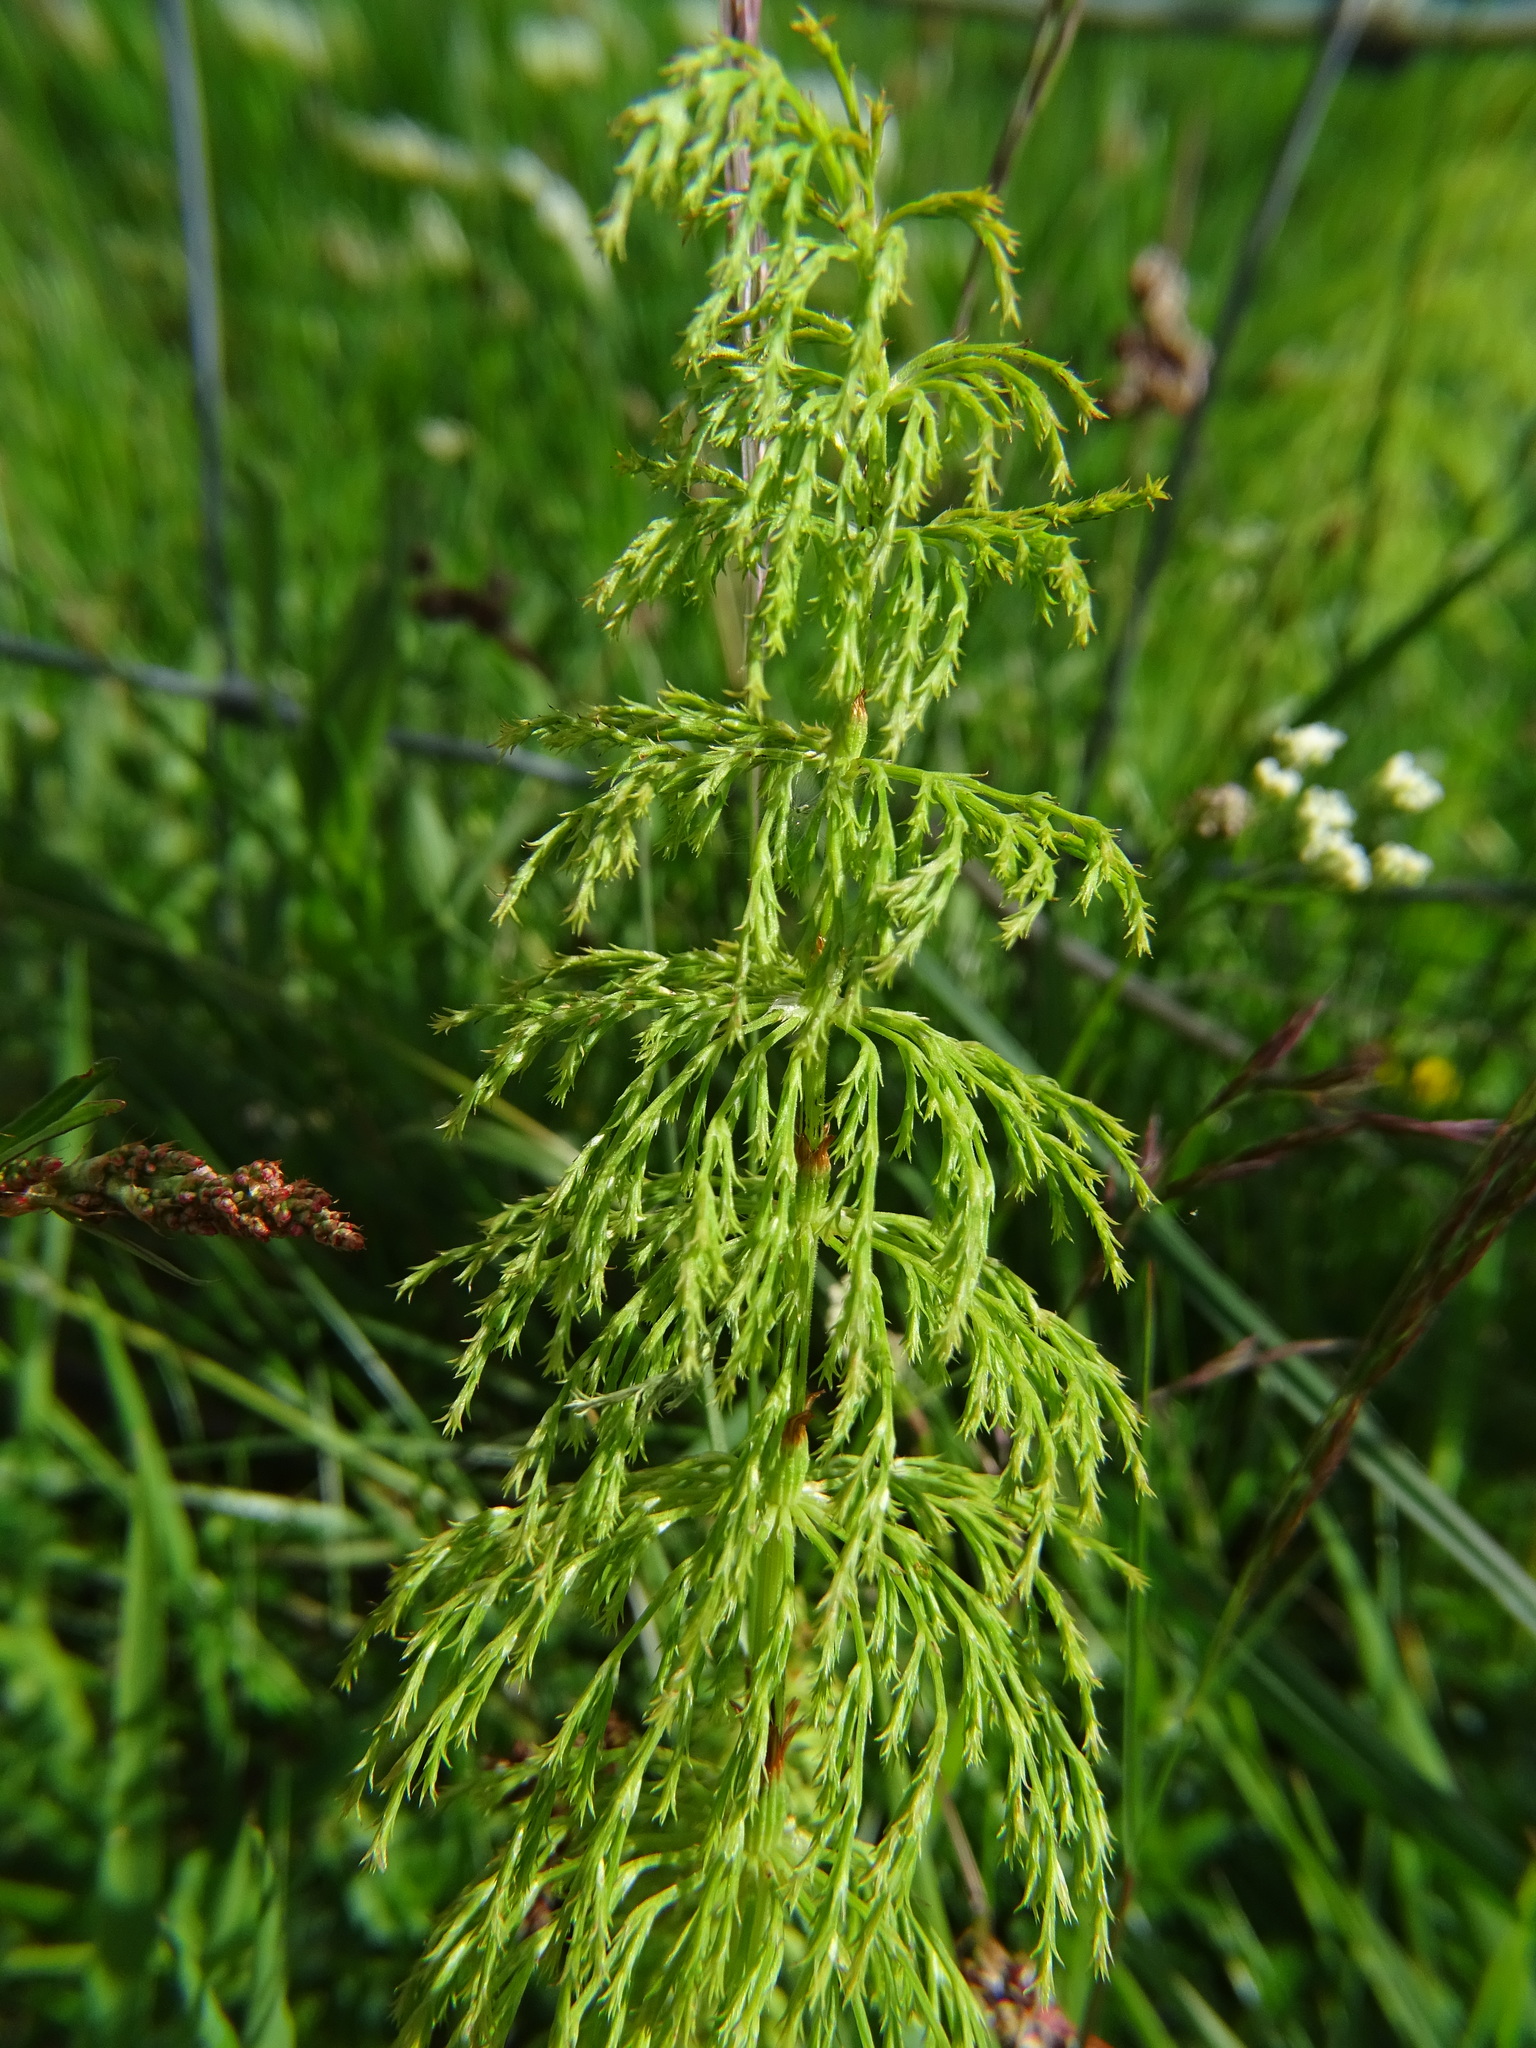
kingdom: Plantae
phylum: Tracheophyta
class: Polypodiopsida
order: Equisetales
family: Equisetaceae
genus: Equisetum
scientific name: Equisetum sylvaticum
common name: Wood horsetail
